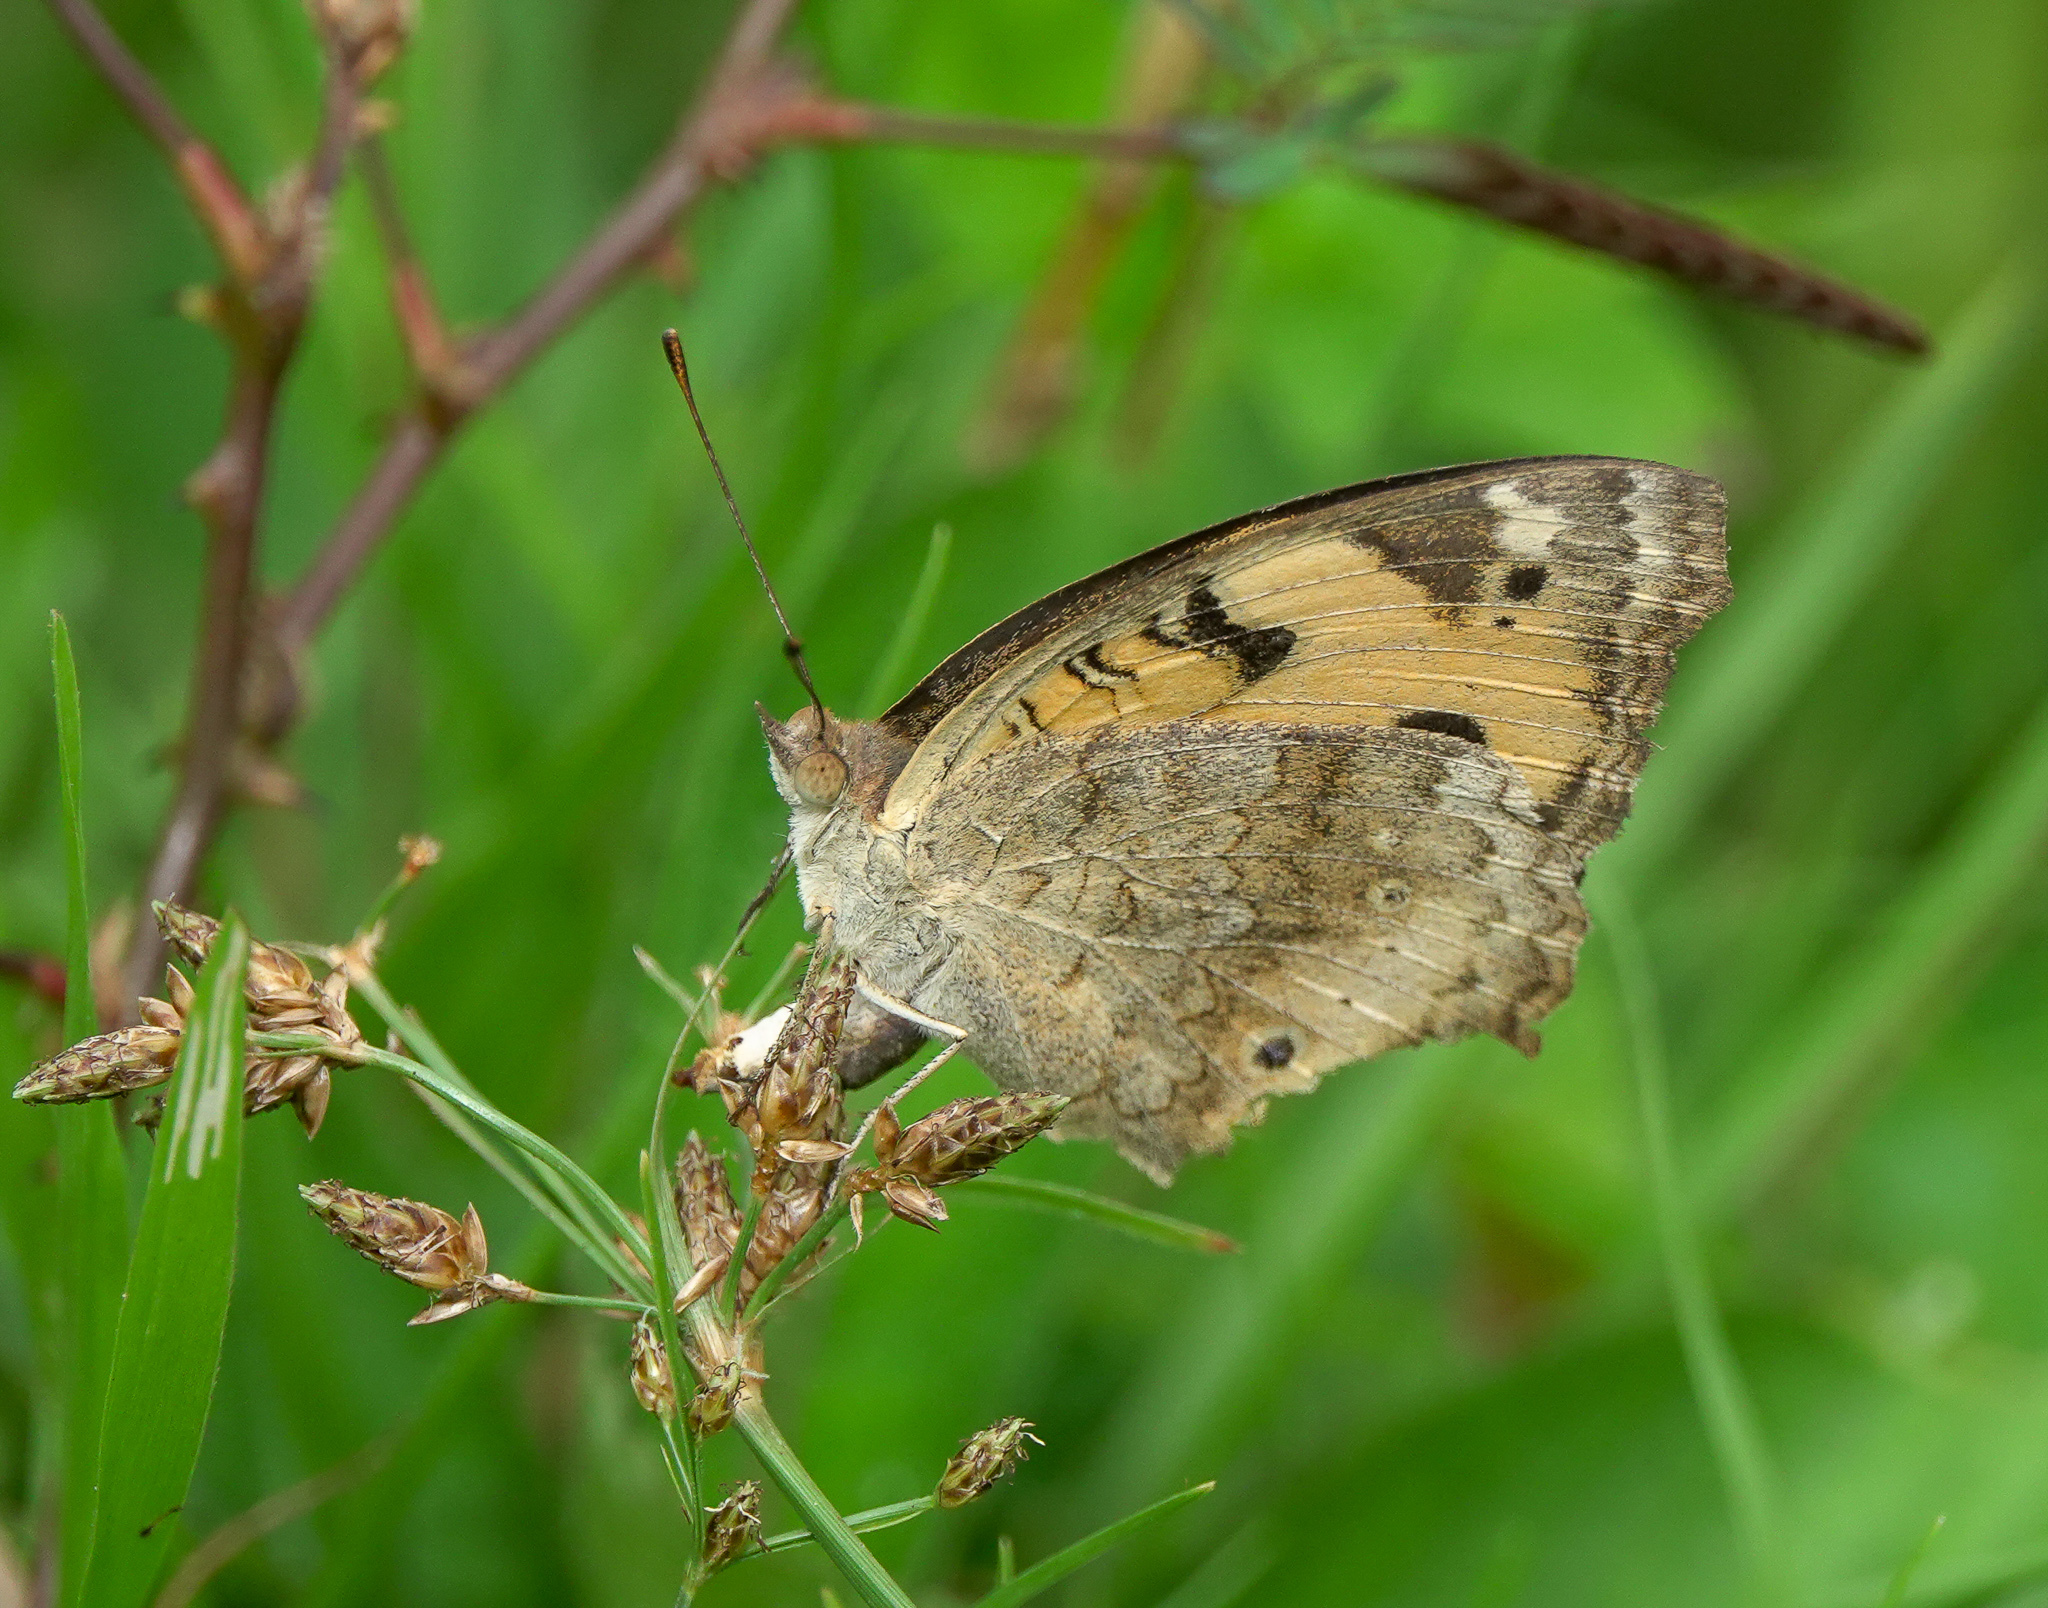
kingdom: Animalia
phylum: Arthropoda
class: Insecta
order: Lepidoptera
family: Nymphalidae
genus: Junonia
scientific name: Junonia hierta
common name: Yellow pansy
